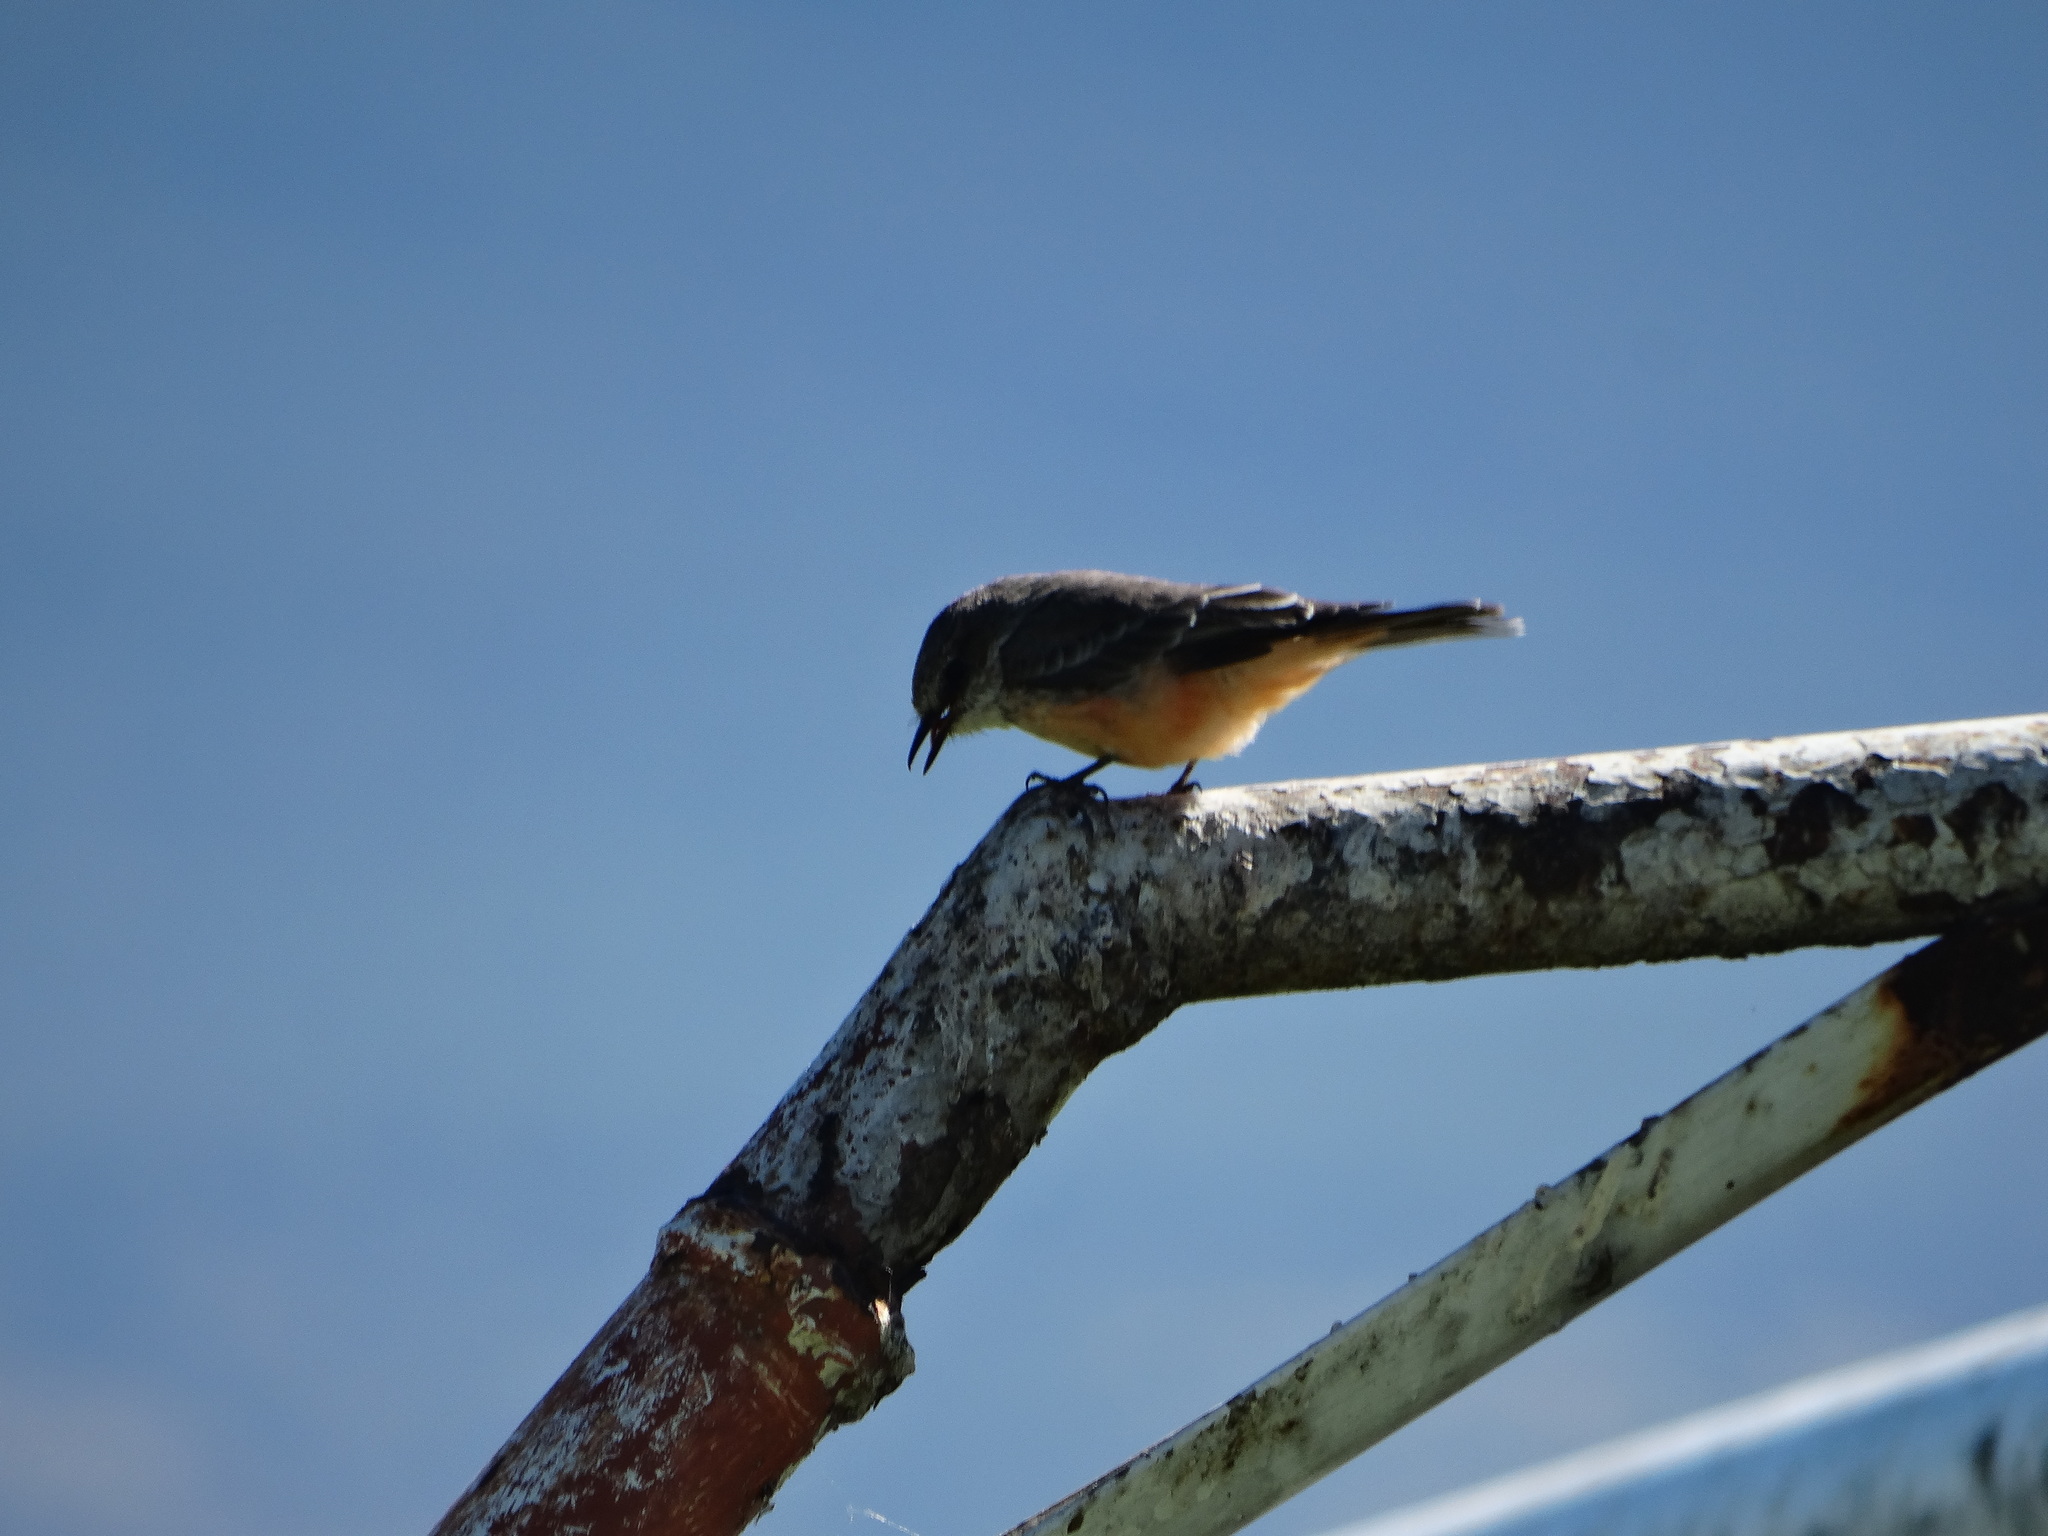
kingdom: Animalia
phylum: Chordata
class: Aves
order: Passeriformes
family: Tyrannidae
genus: Pyrocephalus
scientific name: Pyrocephalus rubinus
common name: Vermilion flycatcher
